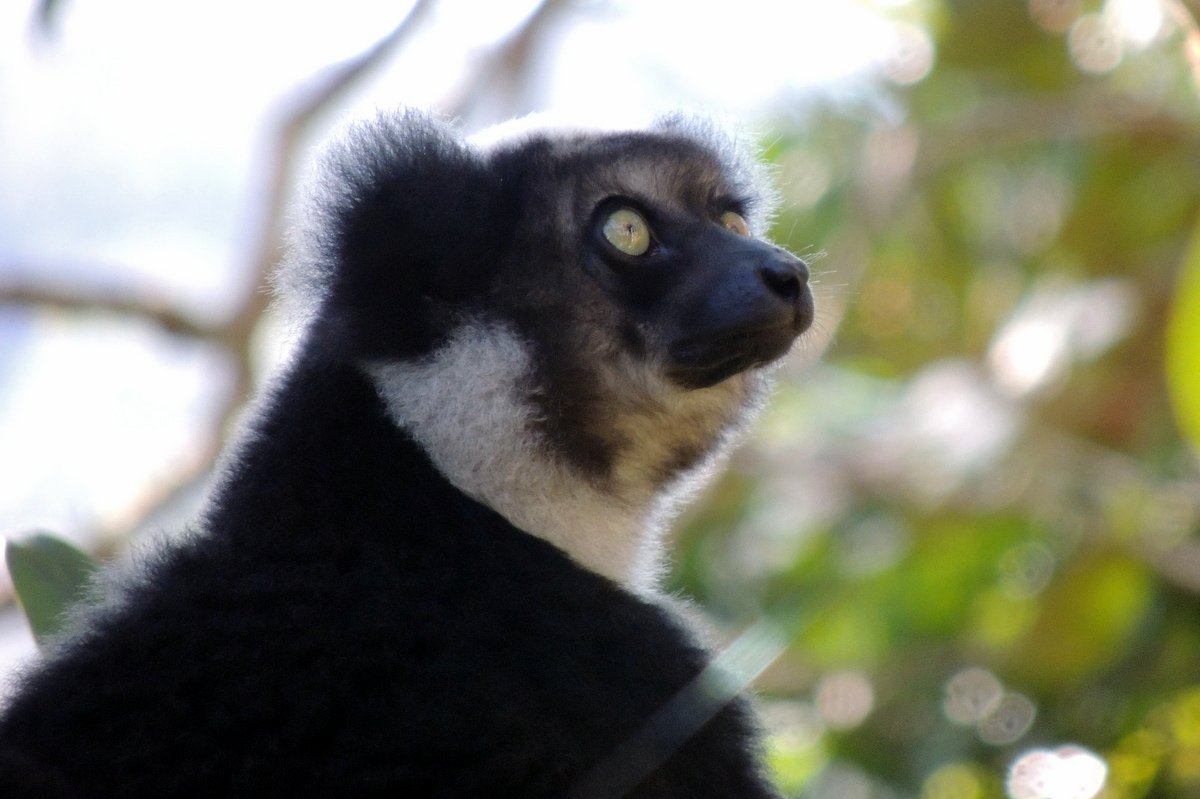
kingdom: Animalia
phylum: Chordata
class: Mammalia
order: Primates
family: Indriidae
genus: Indri
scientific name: Indri indri
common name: Indri
